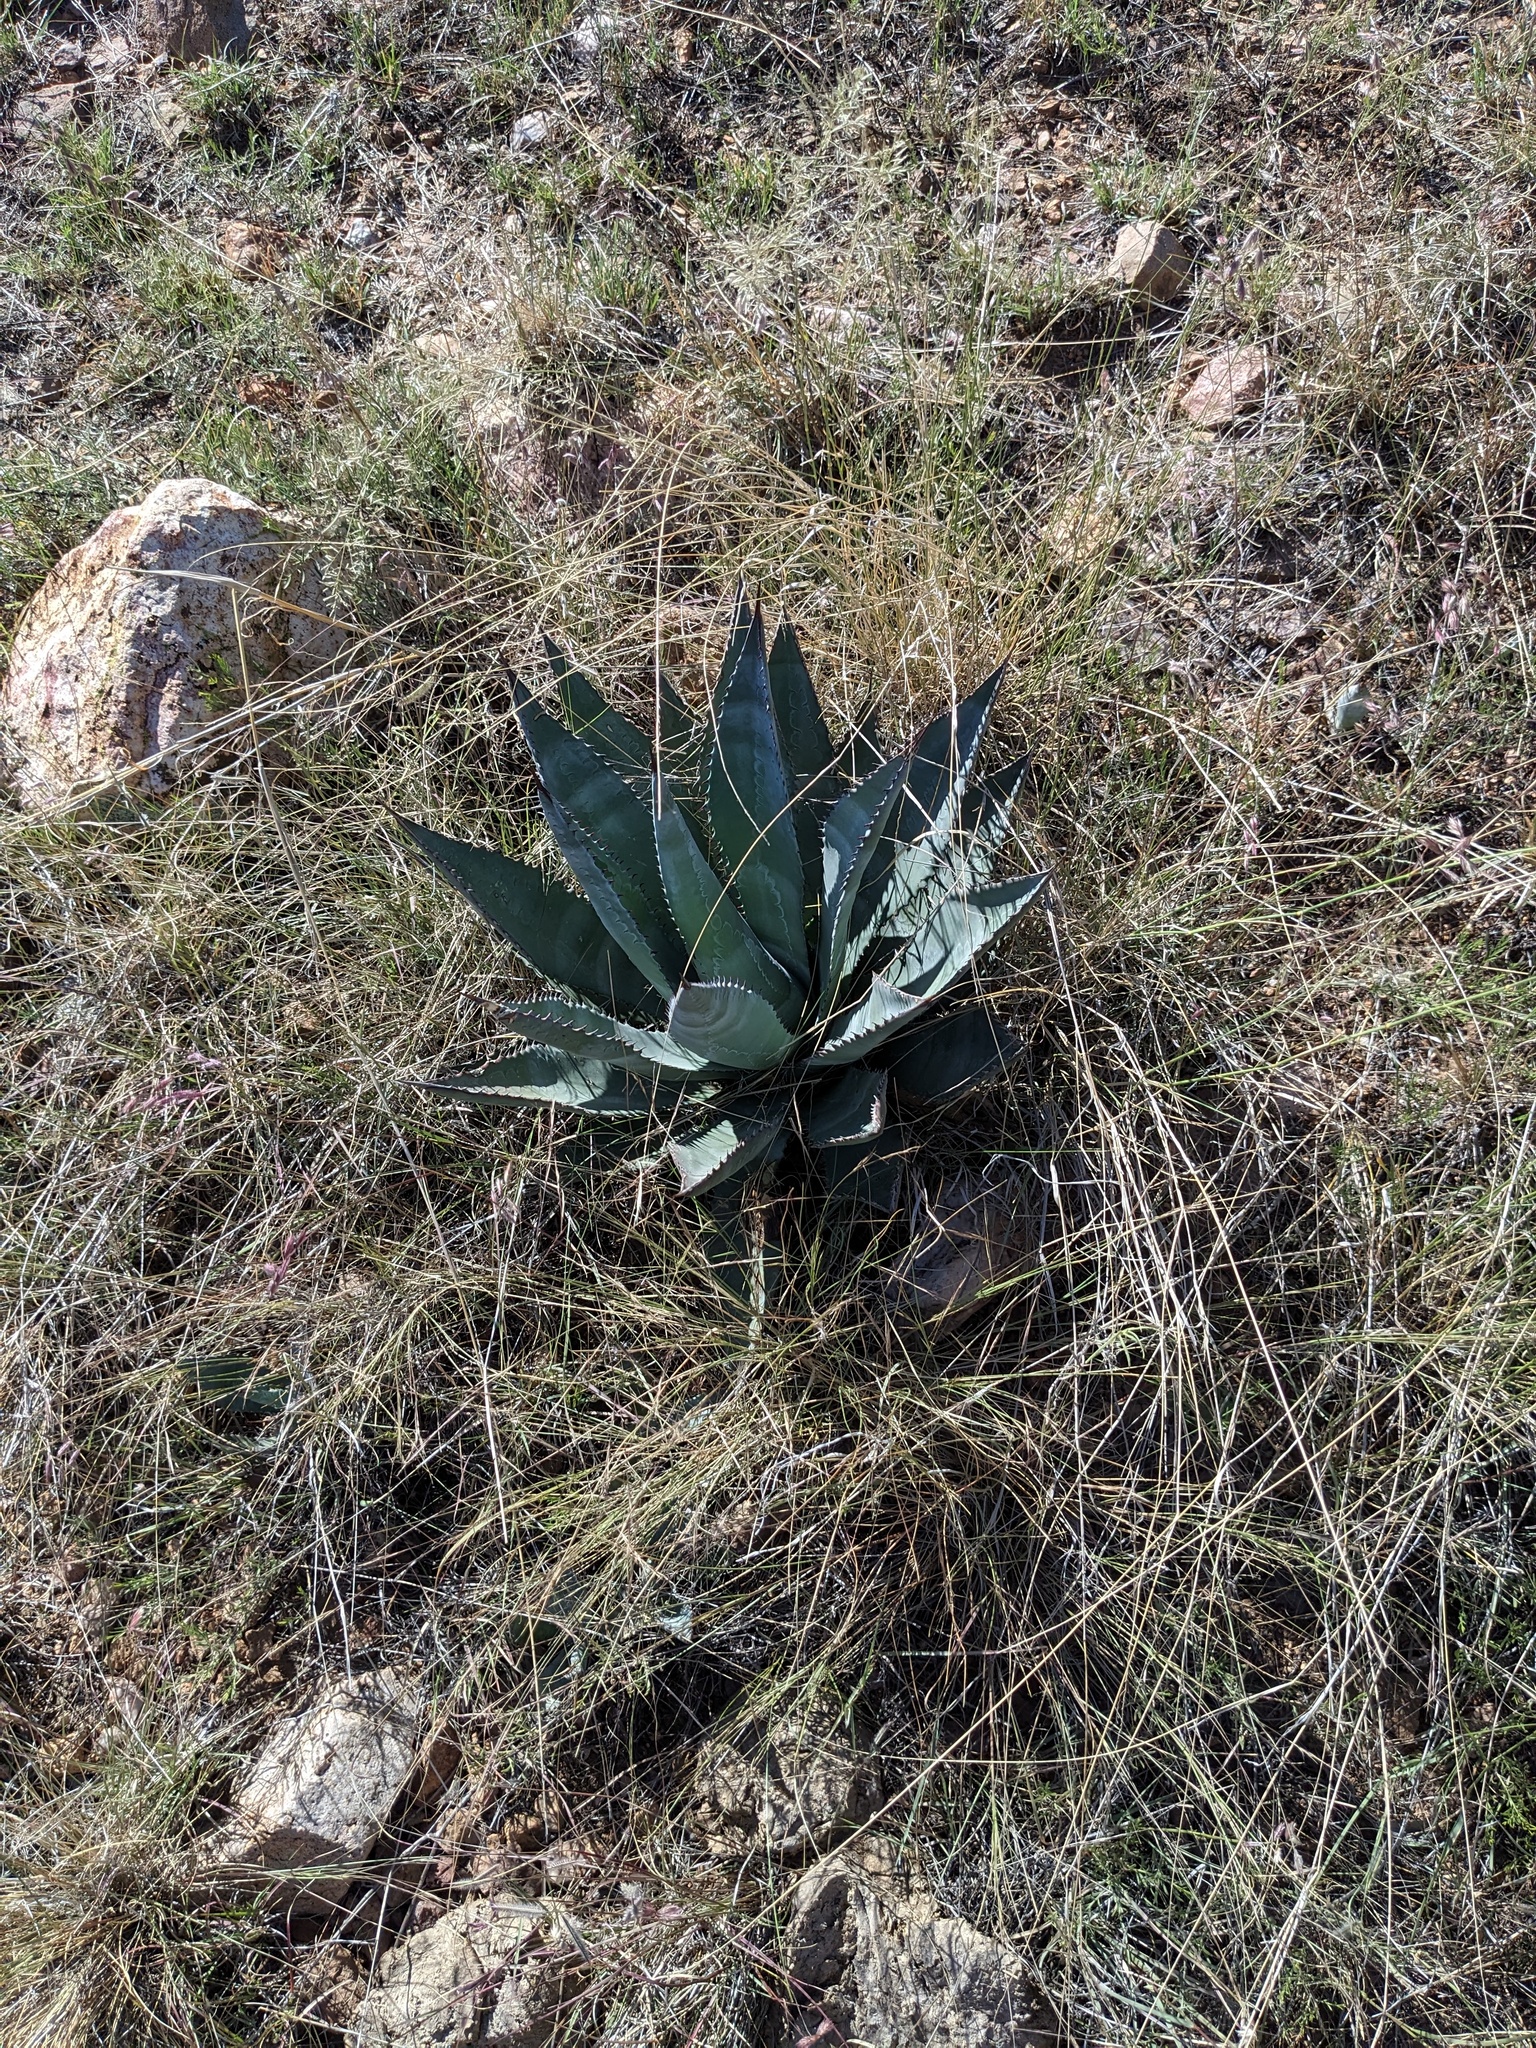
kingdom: Plantae
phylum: Tracheophyta
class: Liliopsida
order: Asparagales
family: Asparagaceae
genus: Agave
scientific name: Agave palmeri
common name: Palmer agave
